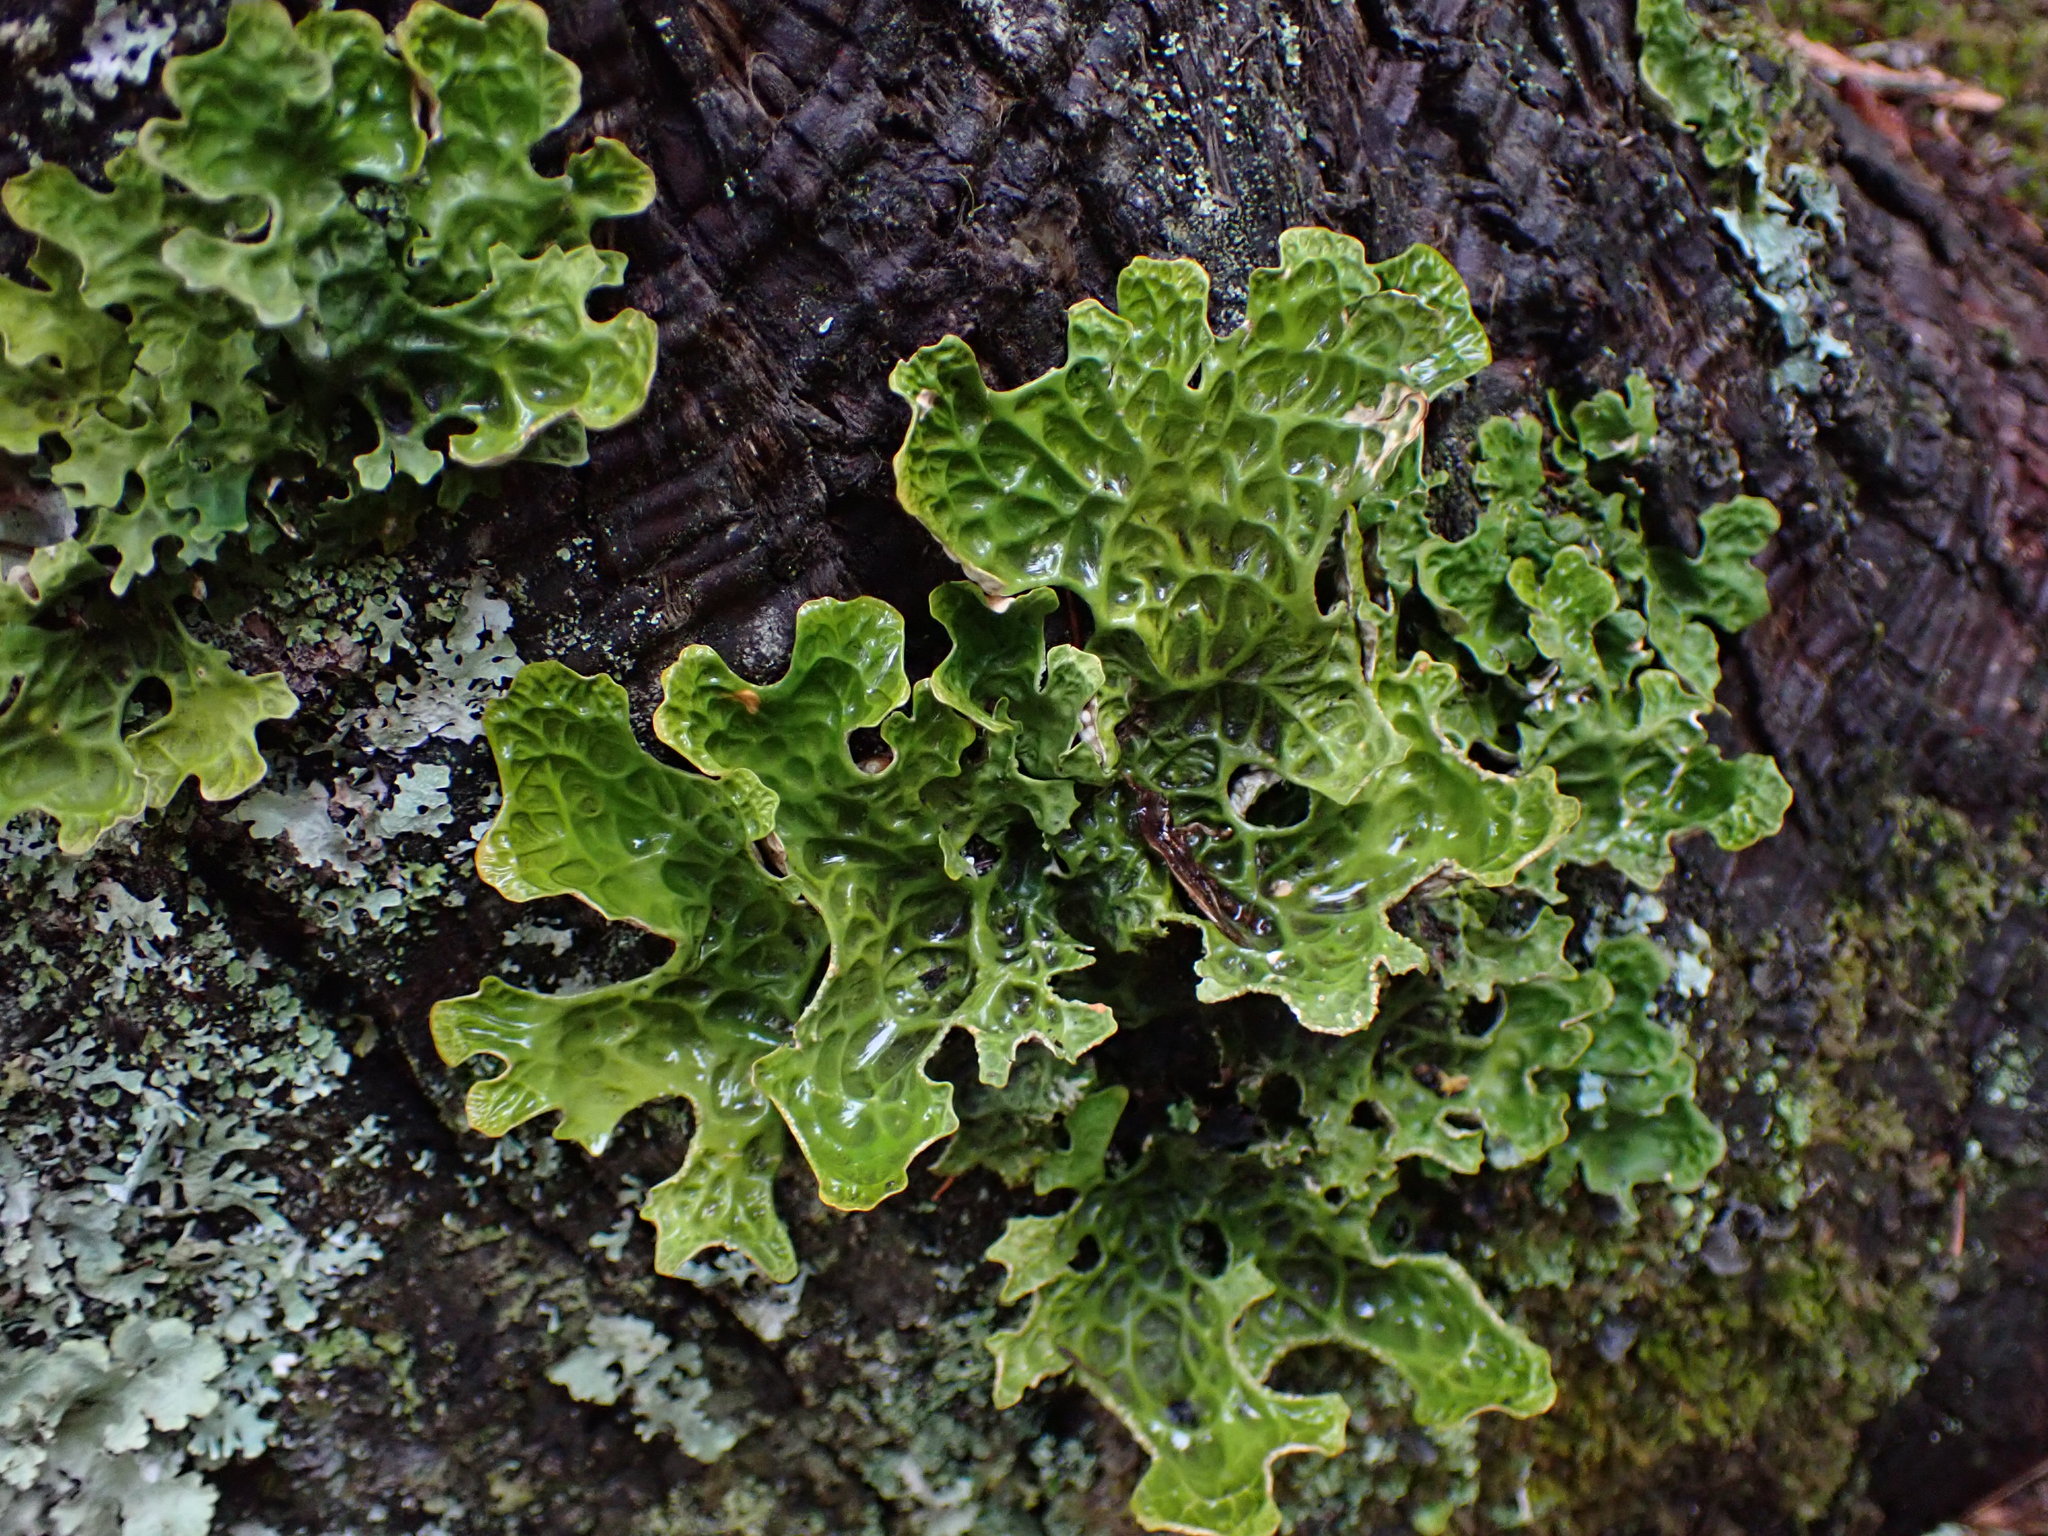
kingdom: Fungi
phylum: Ascomycota
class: Lecanoromycetes
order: Peltigerales
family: Lobariaceae
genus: Lobaria
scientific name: Lobaria pulmonaria
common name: Lungwort
